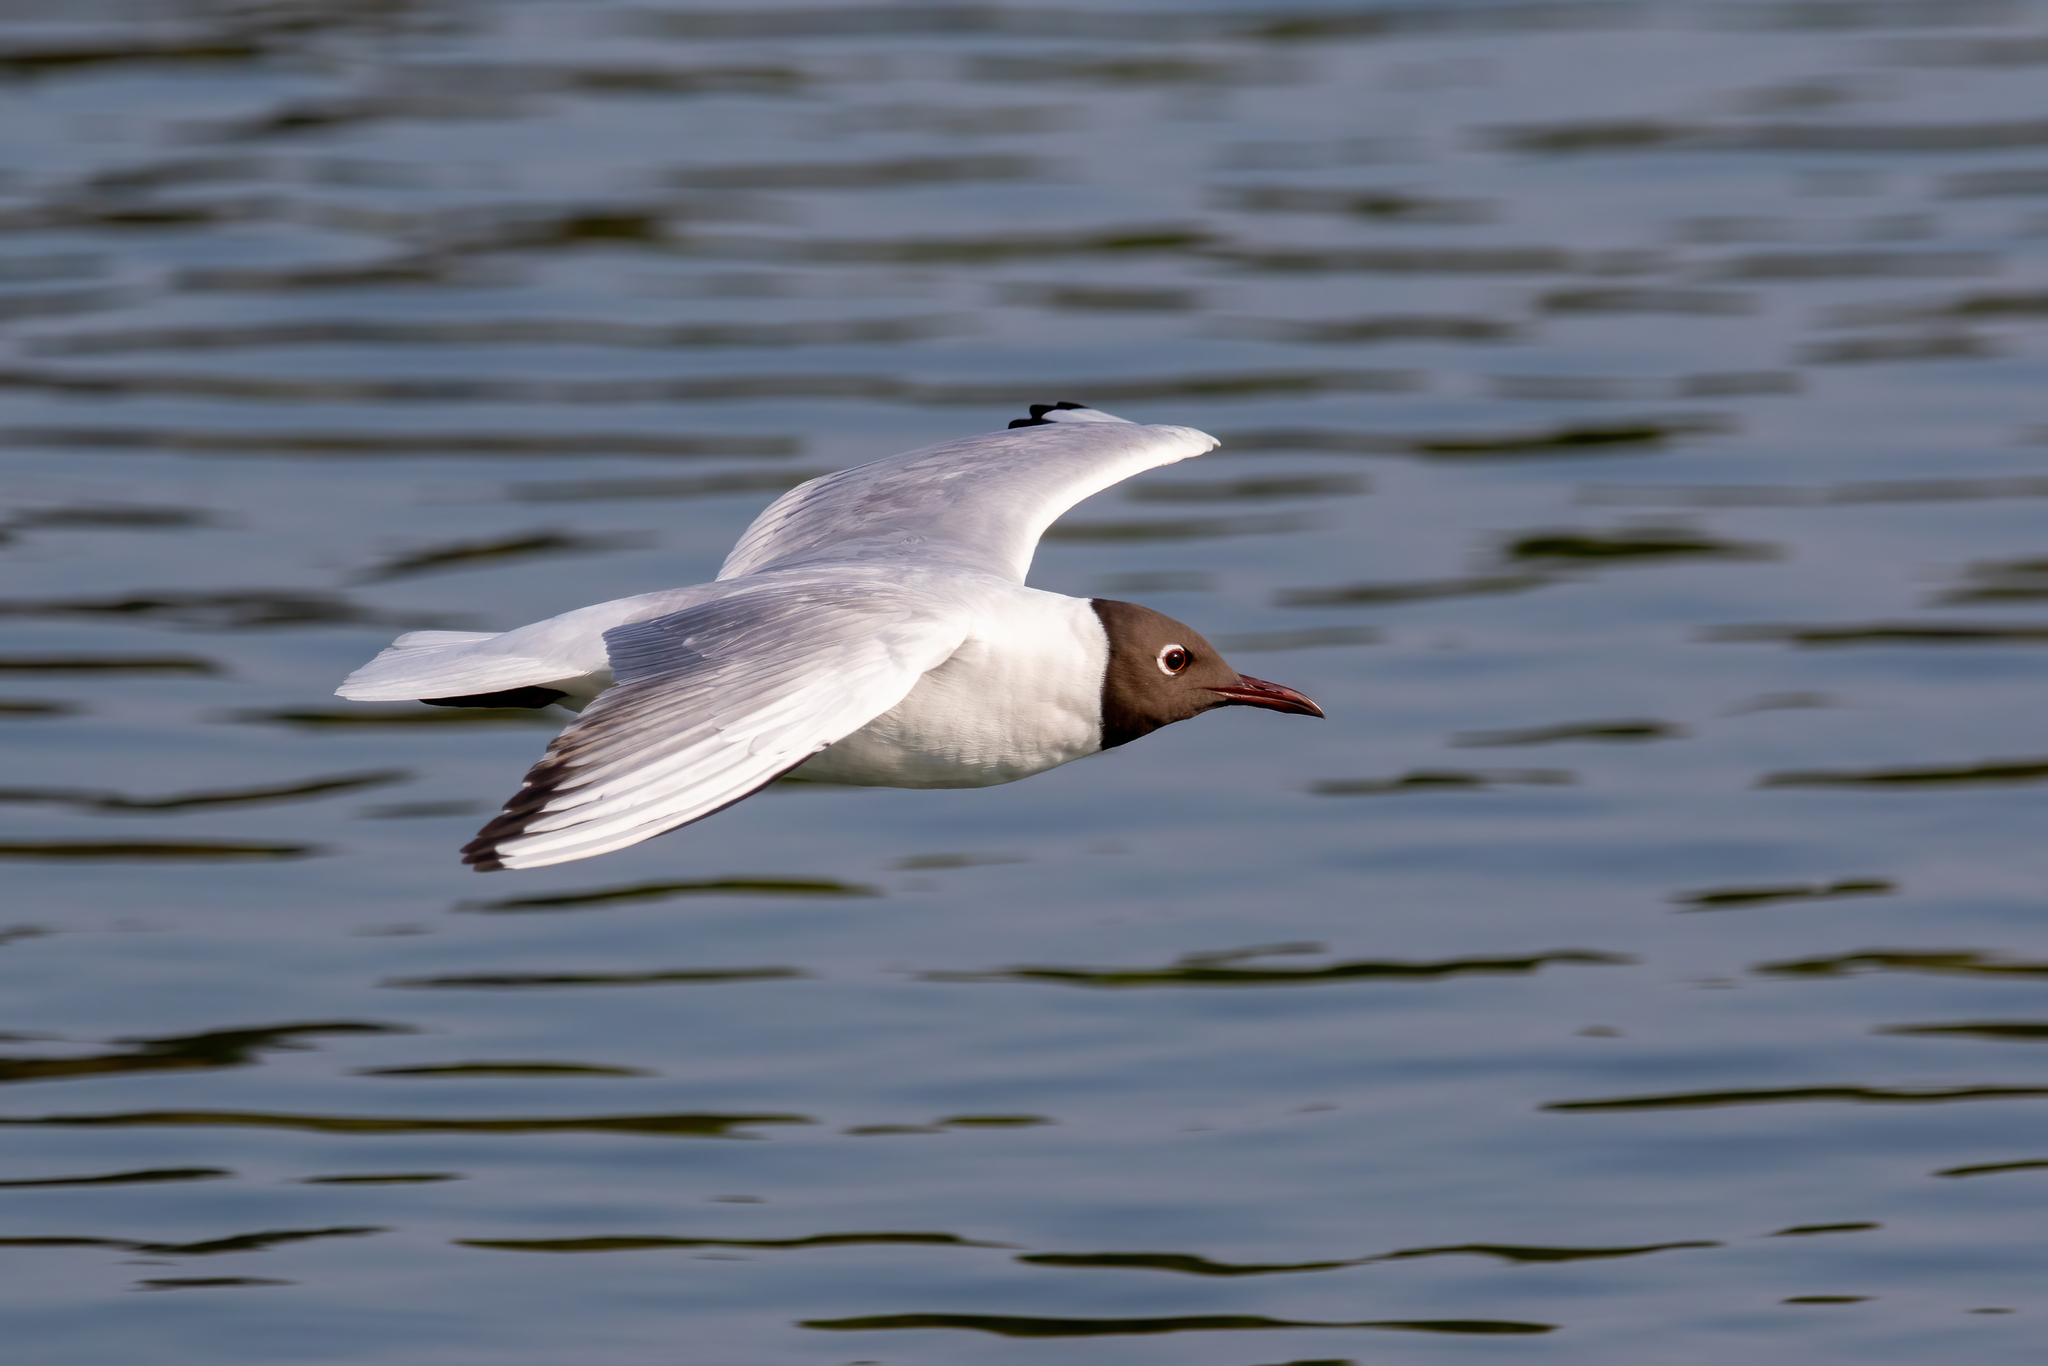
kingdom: Animalia
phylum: Chordata
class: Aves
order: Charadriiformes
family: Laridae
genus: Chroicocephalus
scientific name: Chroicocephalus ridibundus
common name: Black-headed gull
